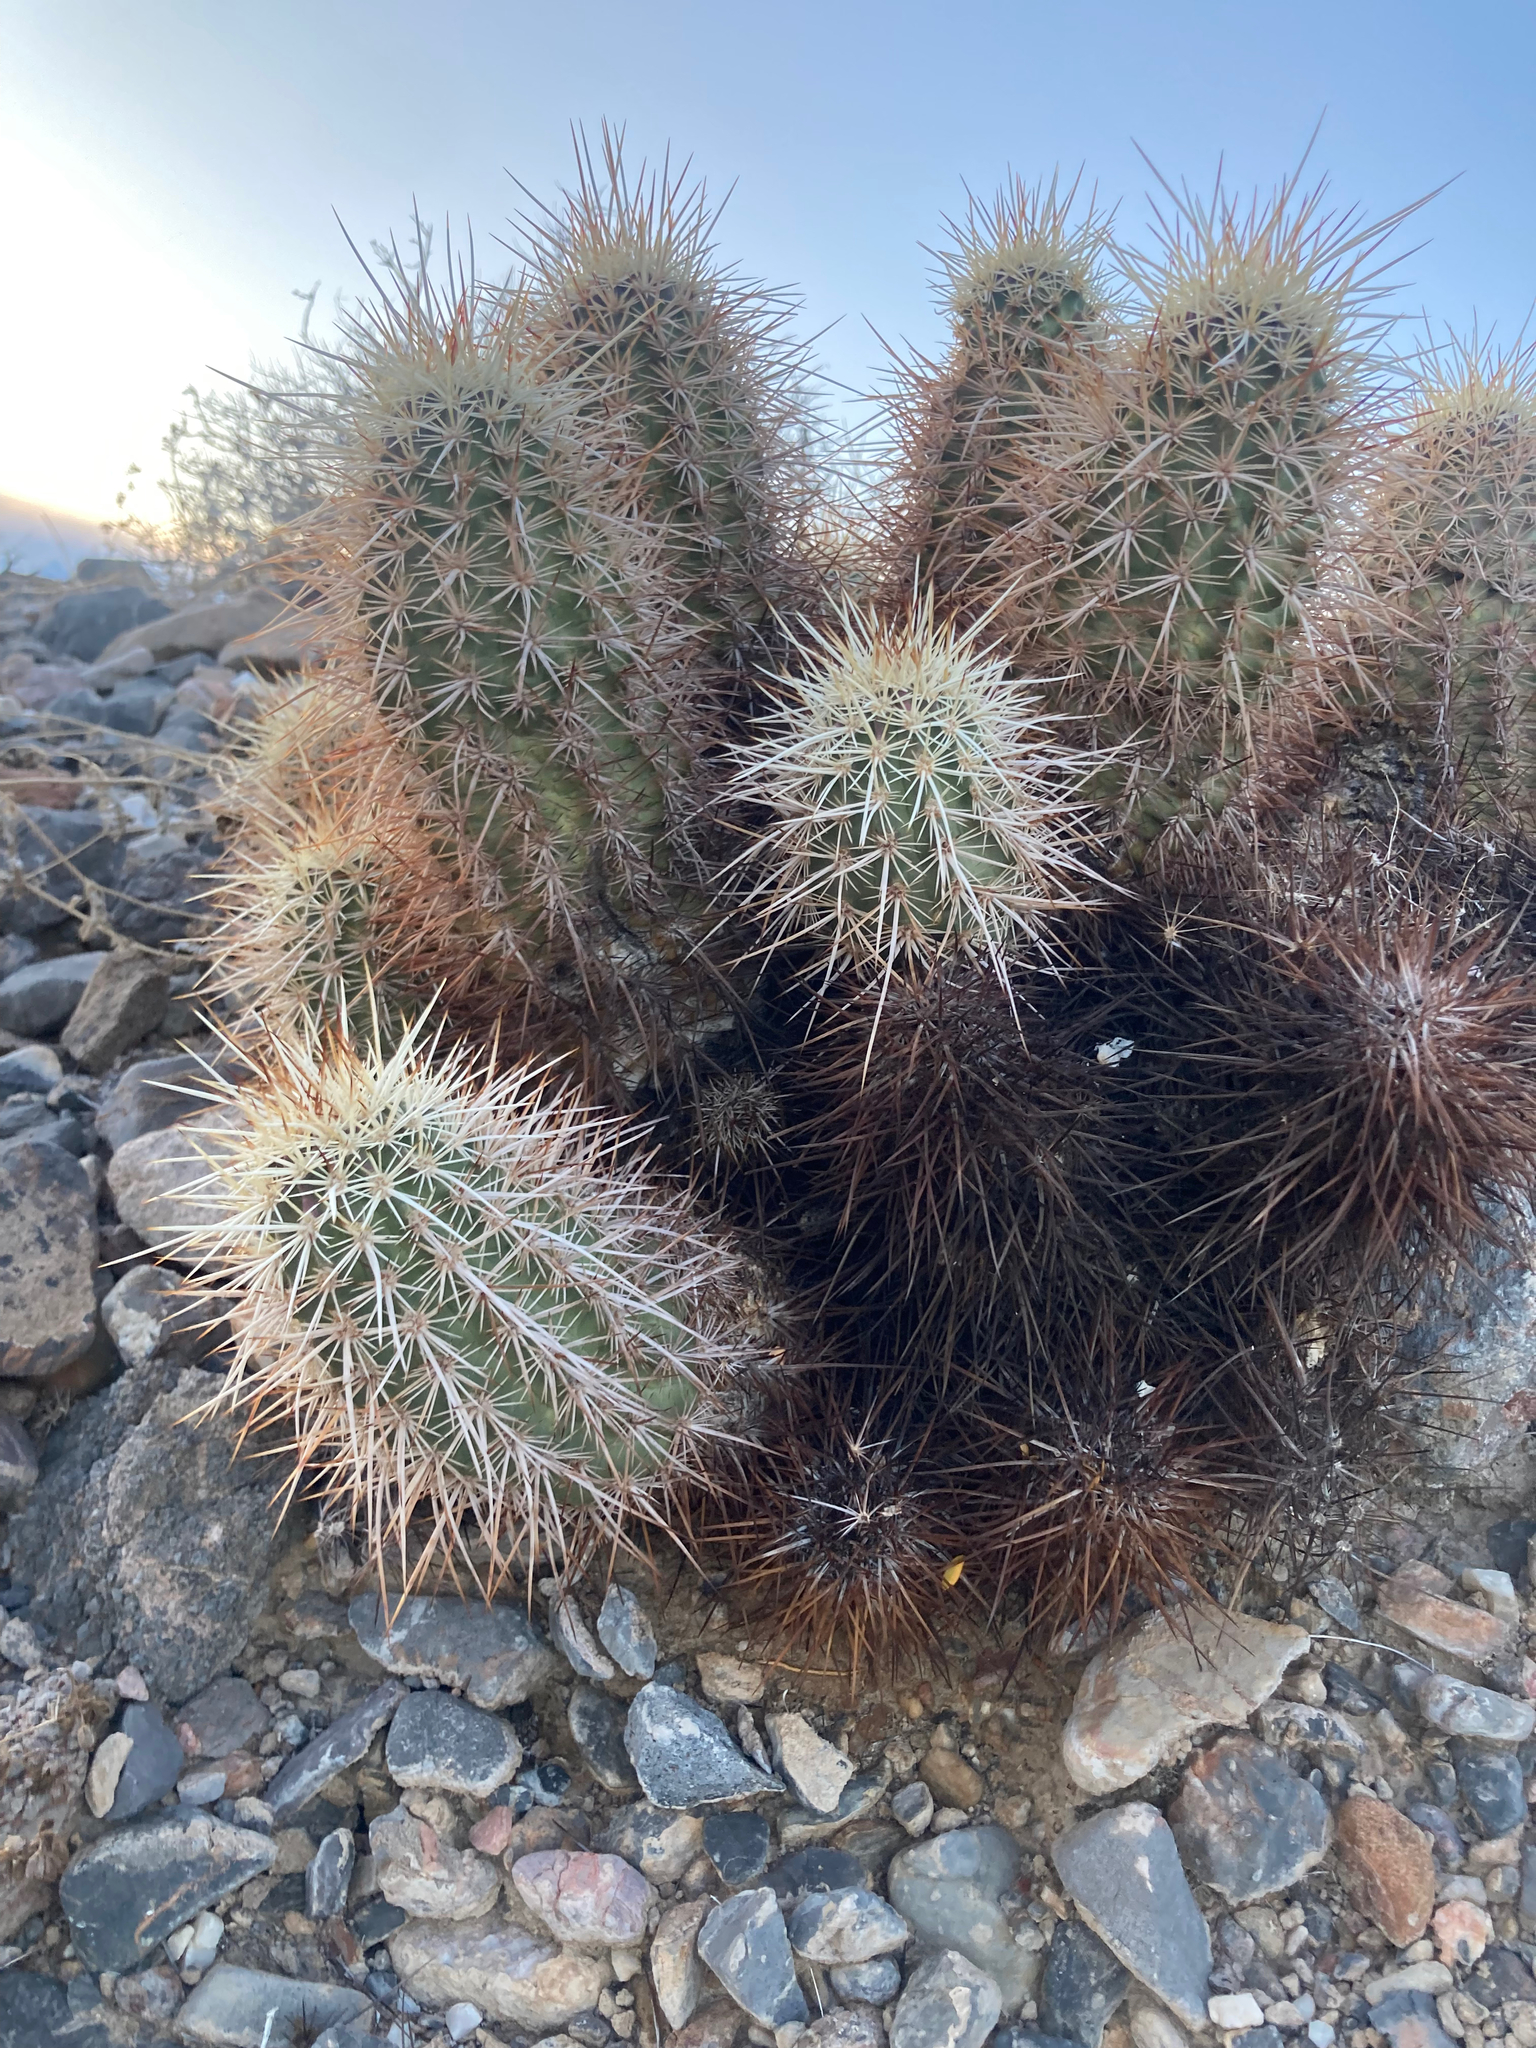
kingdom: Plantae
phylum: Tracheophyta
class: Magnoliopsida
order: Caryophyllales
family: Cactaceae
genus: Echinocereus
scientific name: Echinocereus engelmannii
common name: Engelmann's hedgehog cactus
